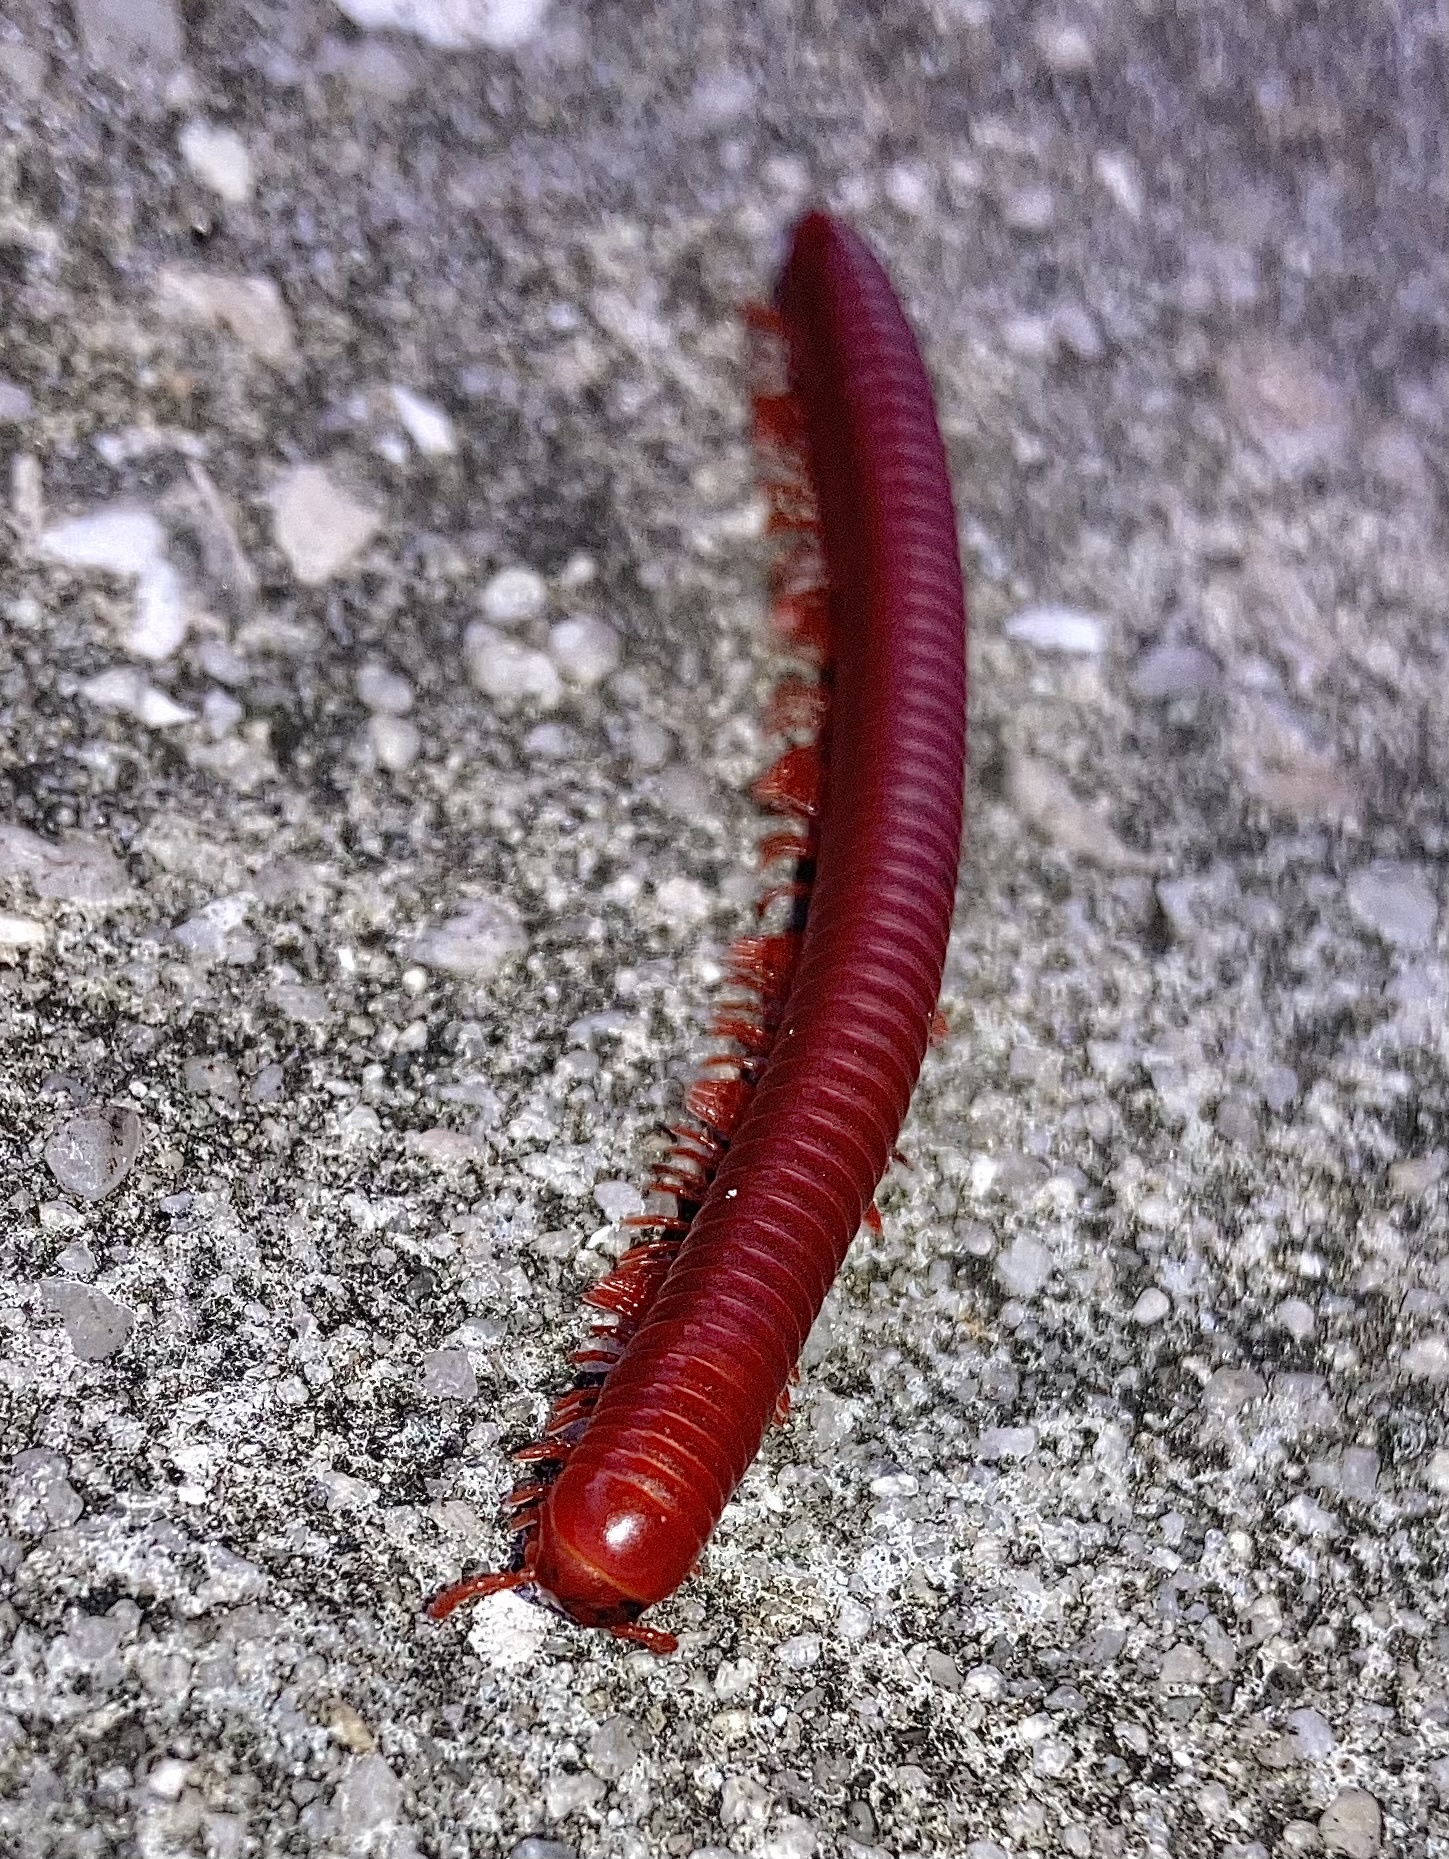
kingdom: Animalia
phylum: Arthropoda
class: Diplopoda
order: Spirobolida
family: Pachybolidae
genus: Trigoniulus
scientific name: Trigoniulus corallinus
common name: Millipede
